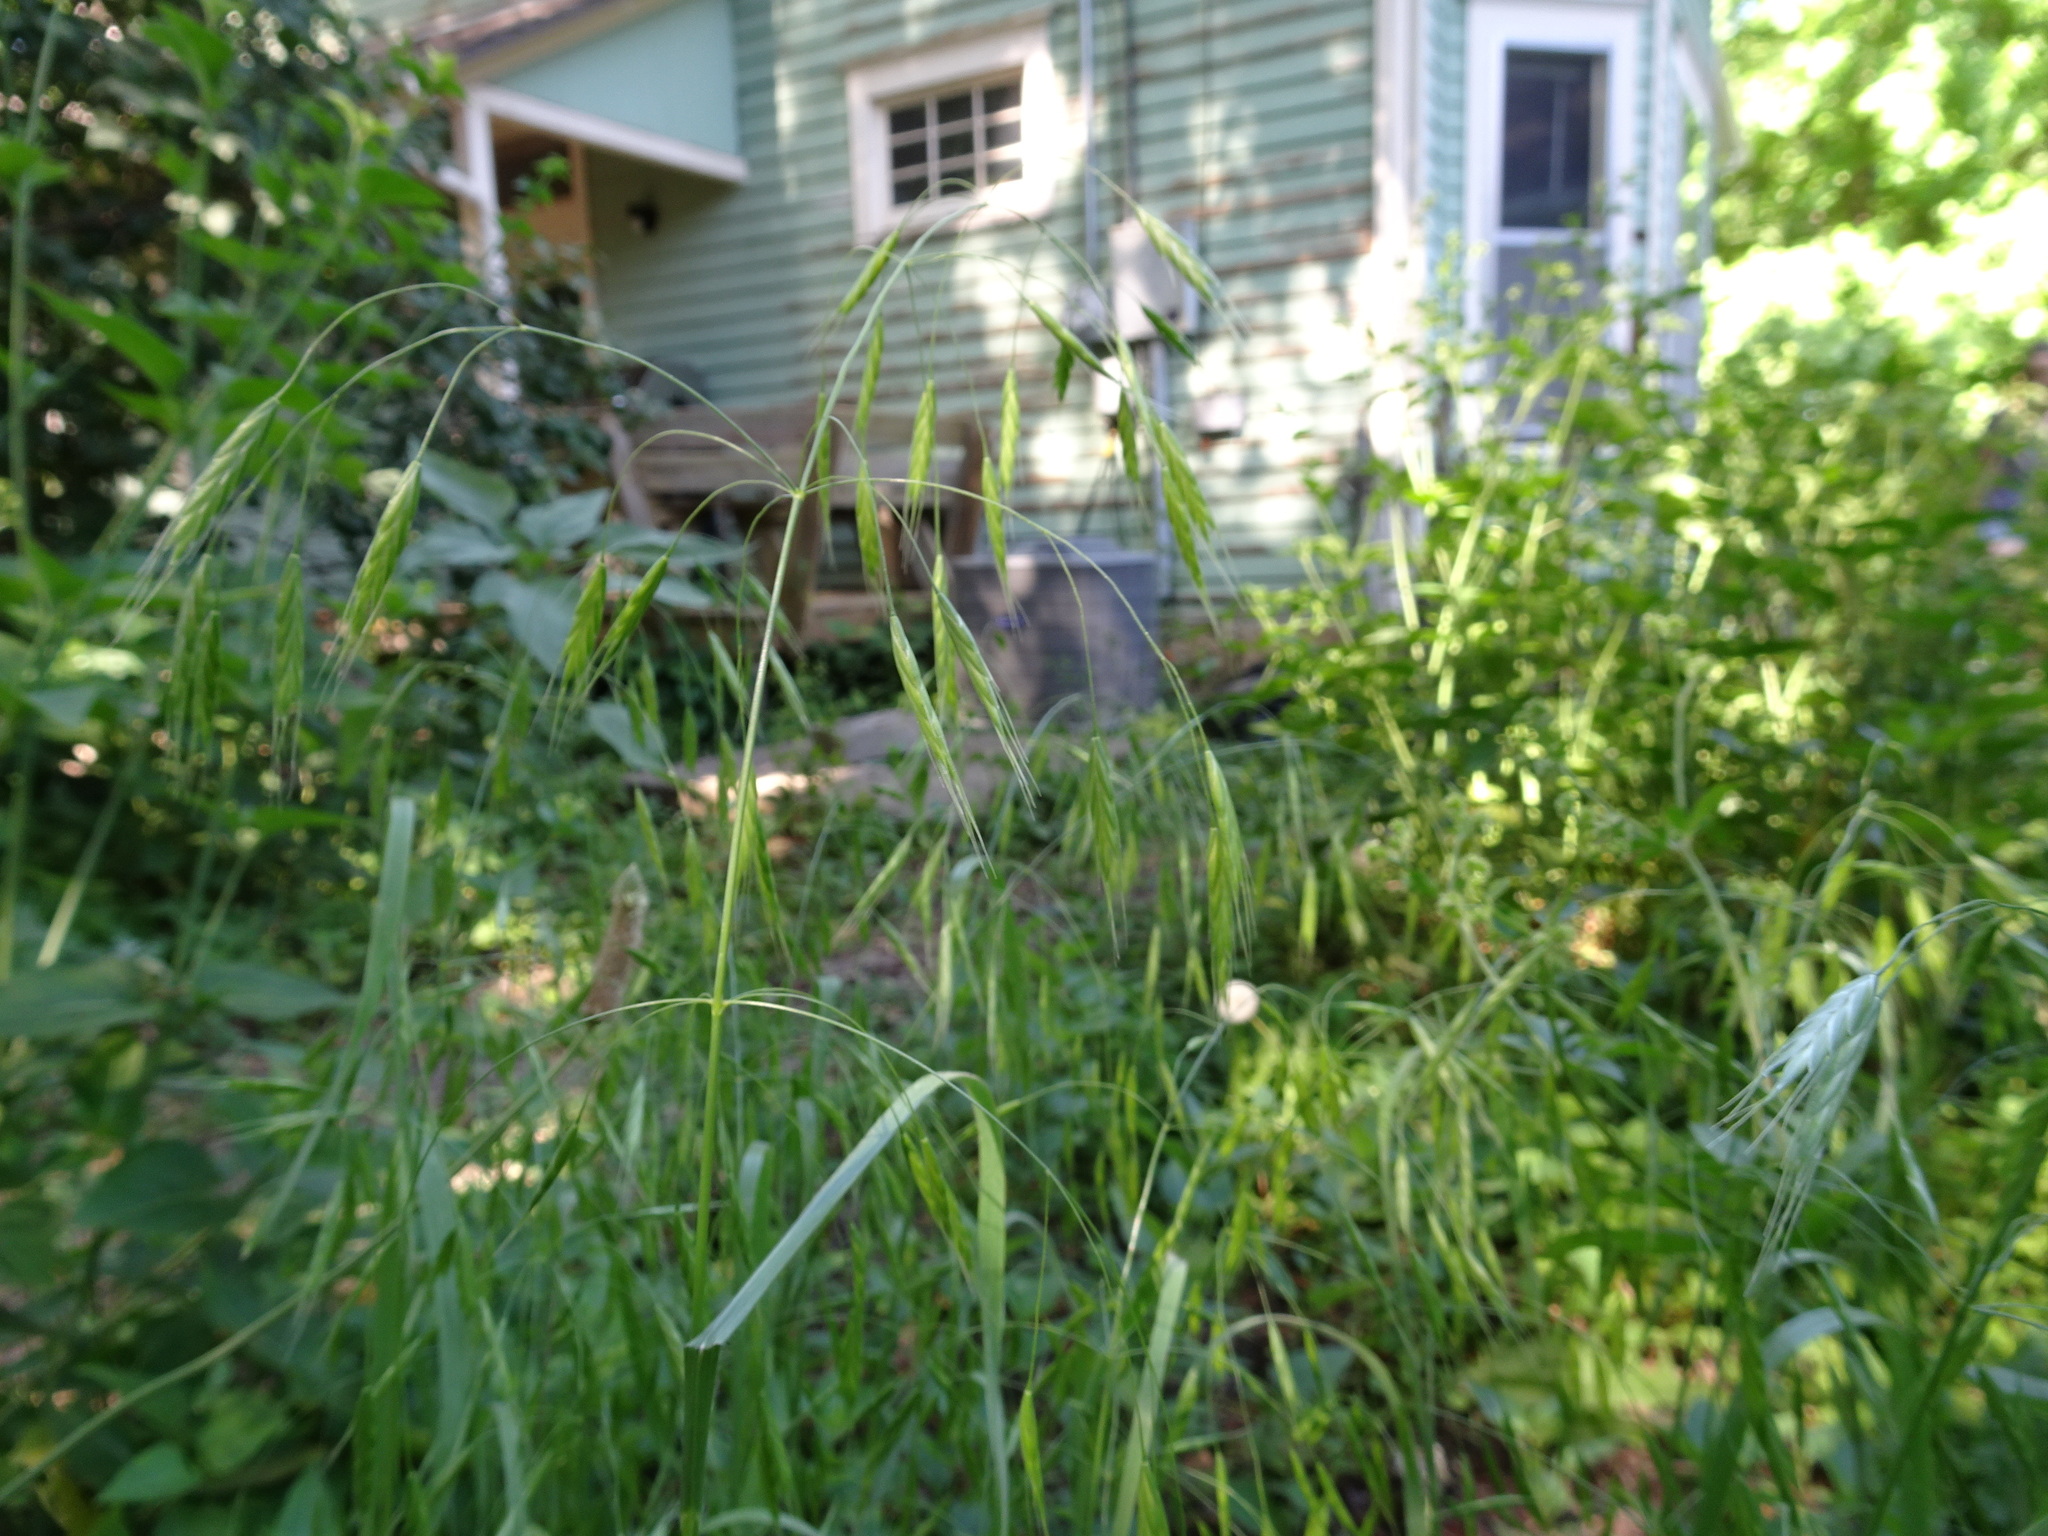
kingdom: Plantae
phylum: Tracheophyta
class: Liliopsida
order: Poales
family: Poaceae
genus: Bromus
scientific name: Bromus japonicus
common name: Japanese brome
